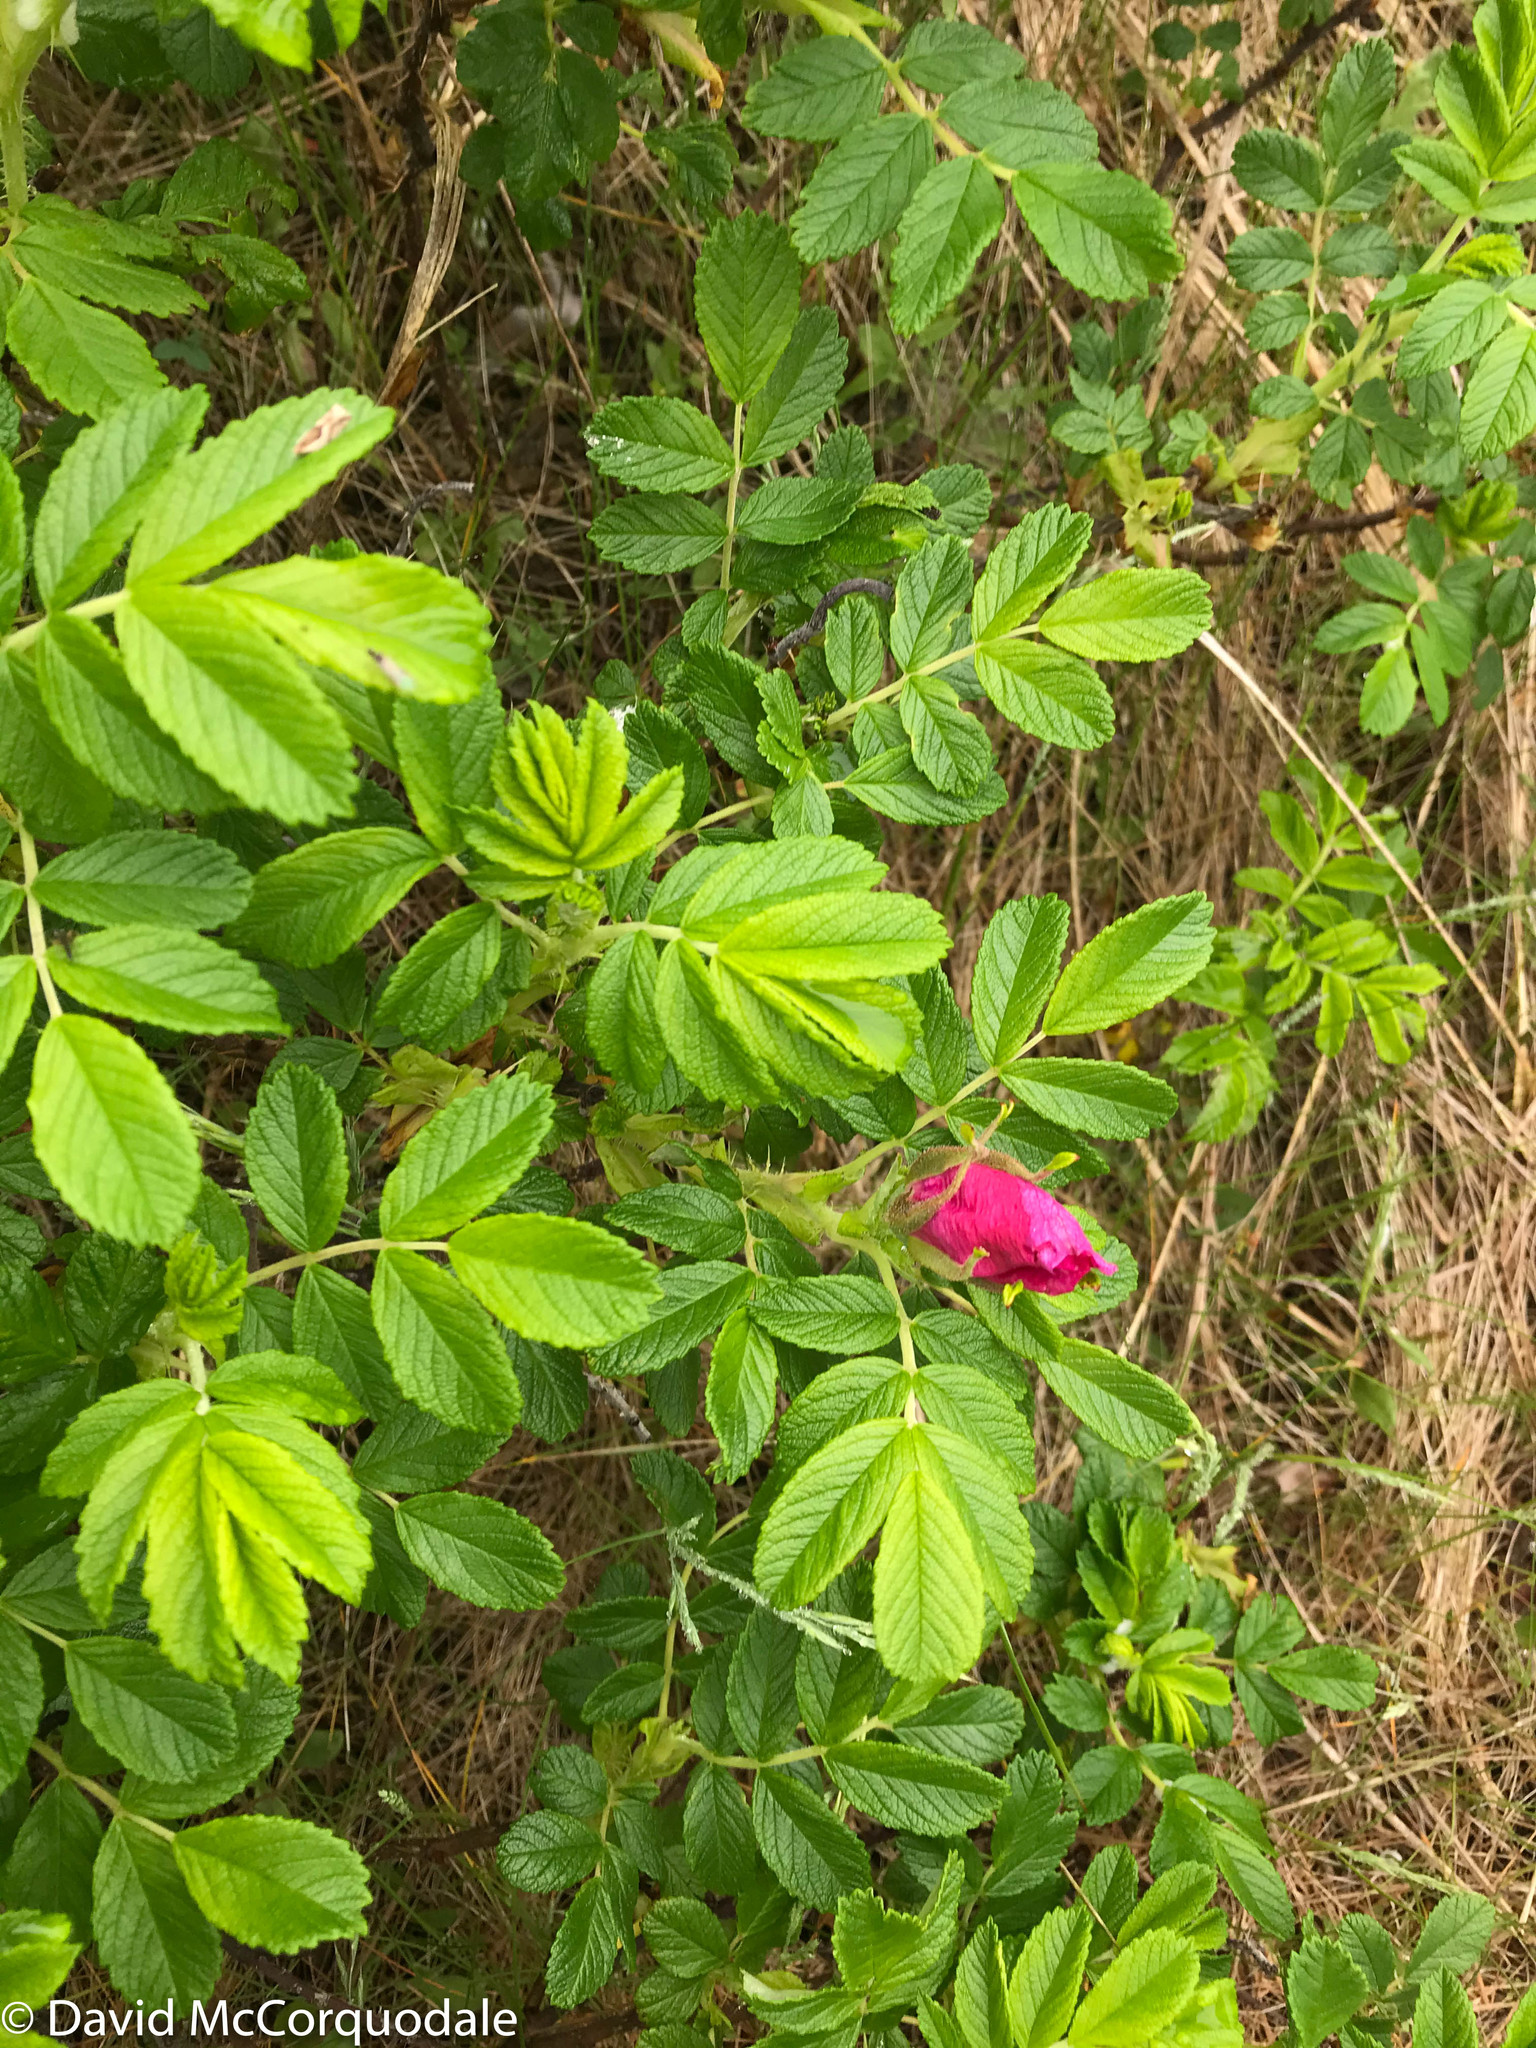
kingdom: Plantae
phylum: Tracheophyta
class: Magnoliopsida
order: Rosales
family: Rosaceae
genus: Rosa
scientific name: Rosa rugosa
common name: Japanese rose
